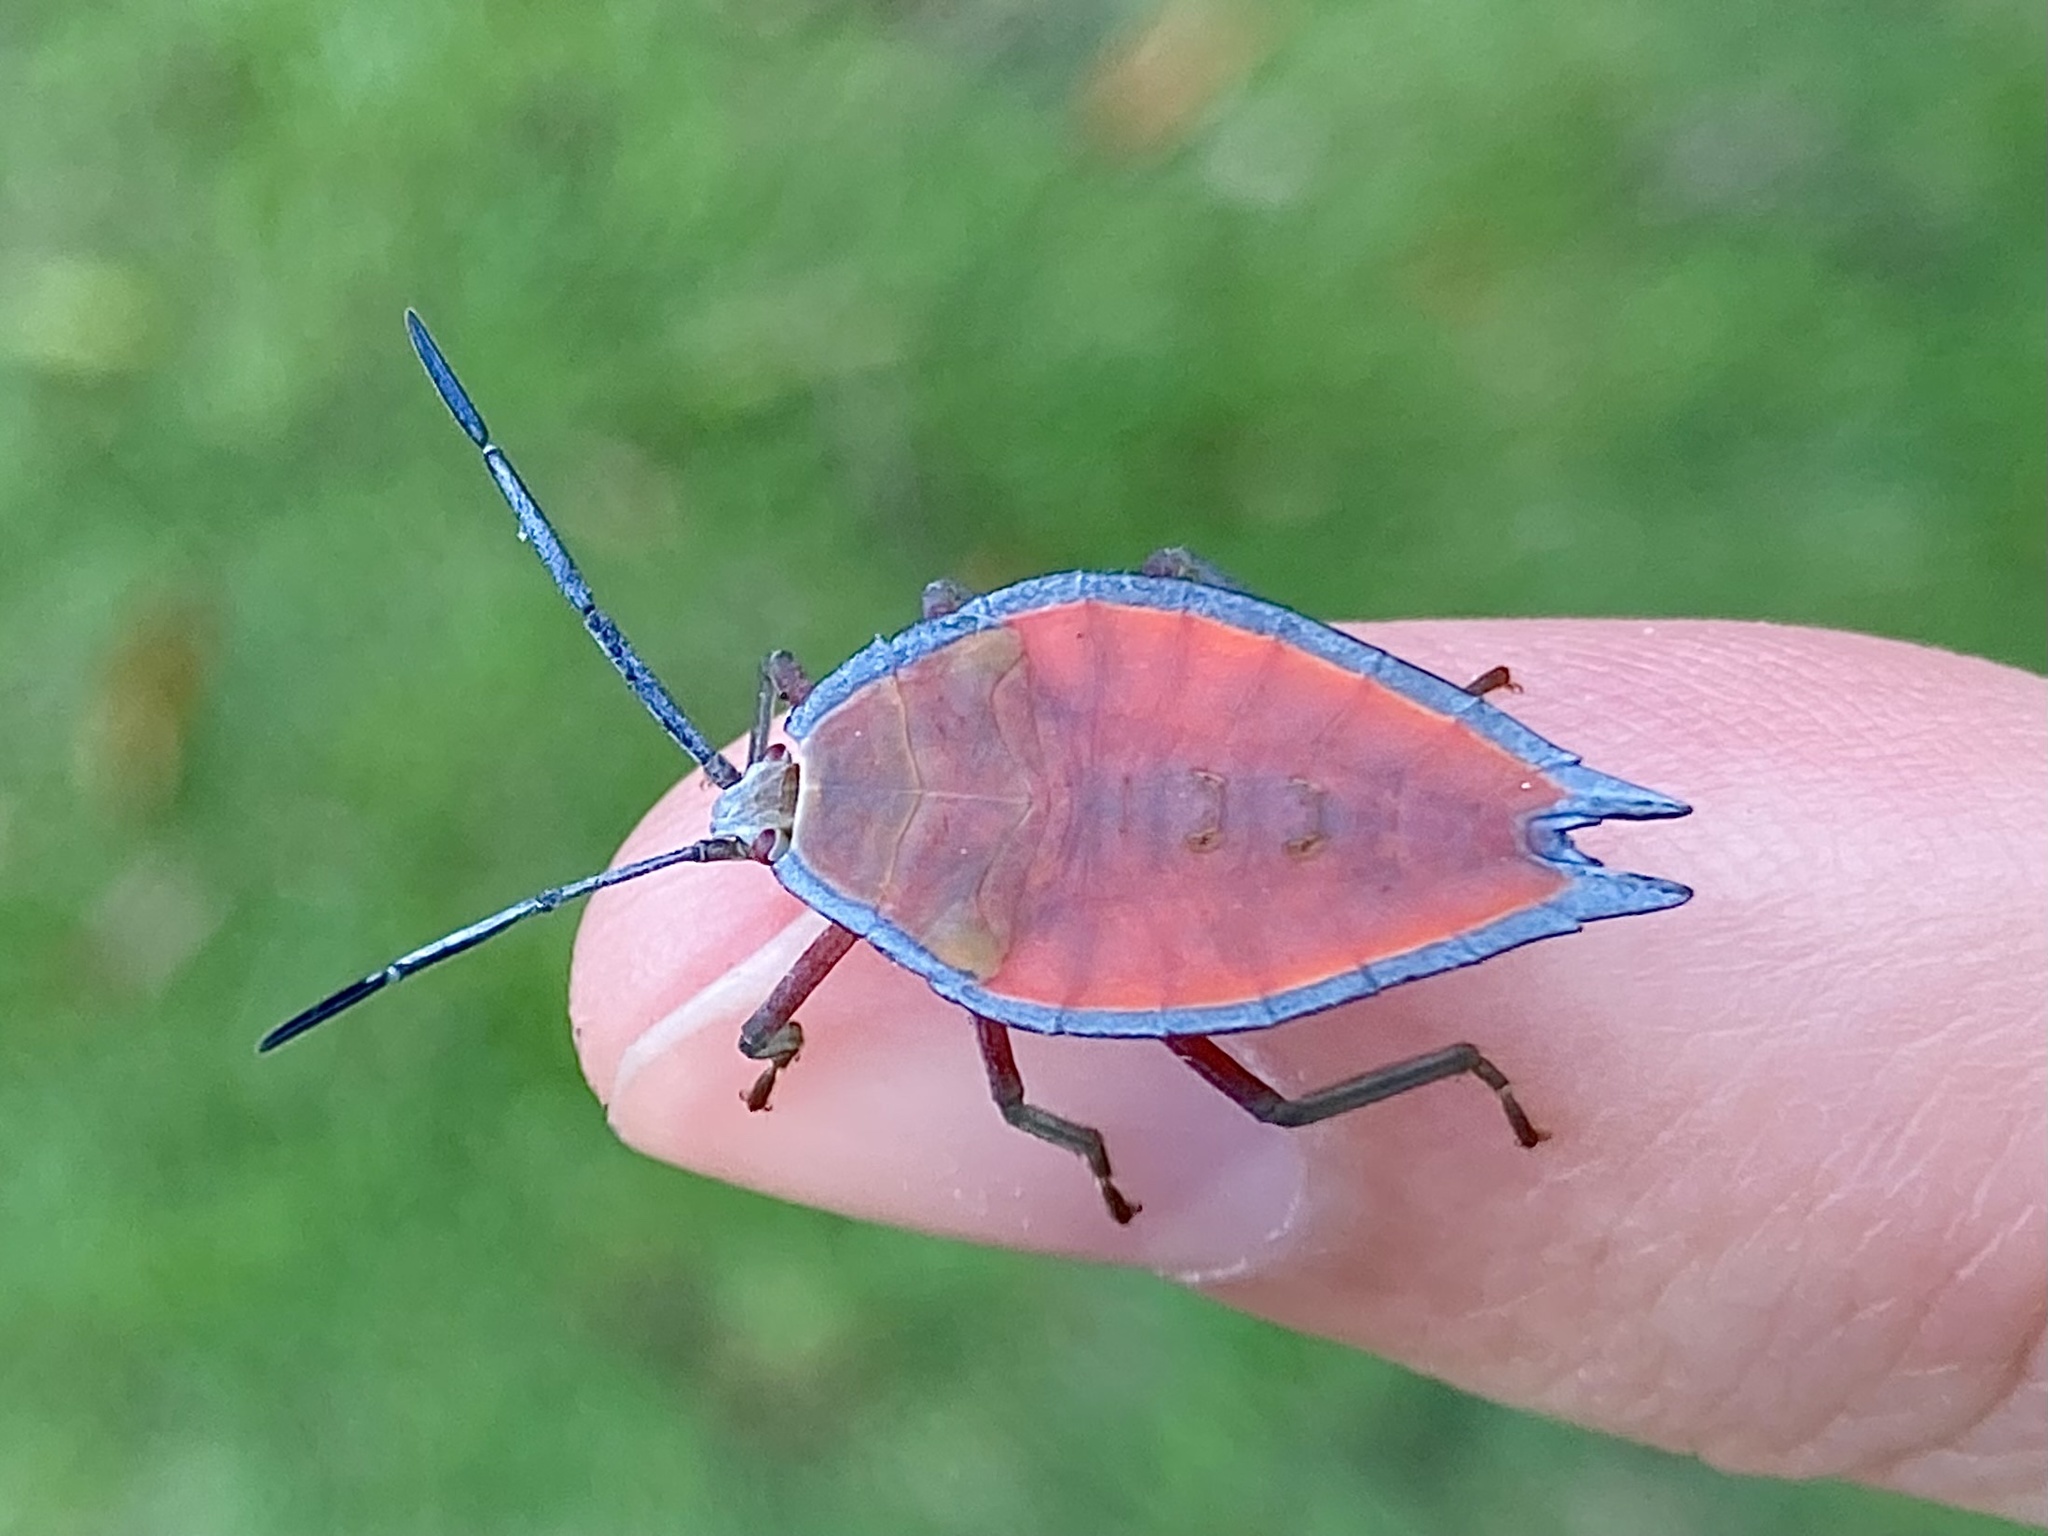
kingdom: Animalia
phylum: Arthropoda
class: Insecta
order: Hemiptera
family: Tessaratomidae
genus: Lyramorpha
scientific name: Lyramorpha rosea
